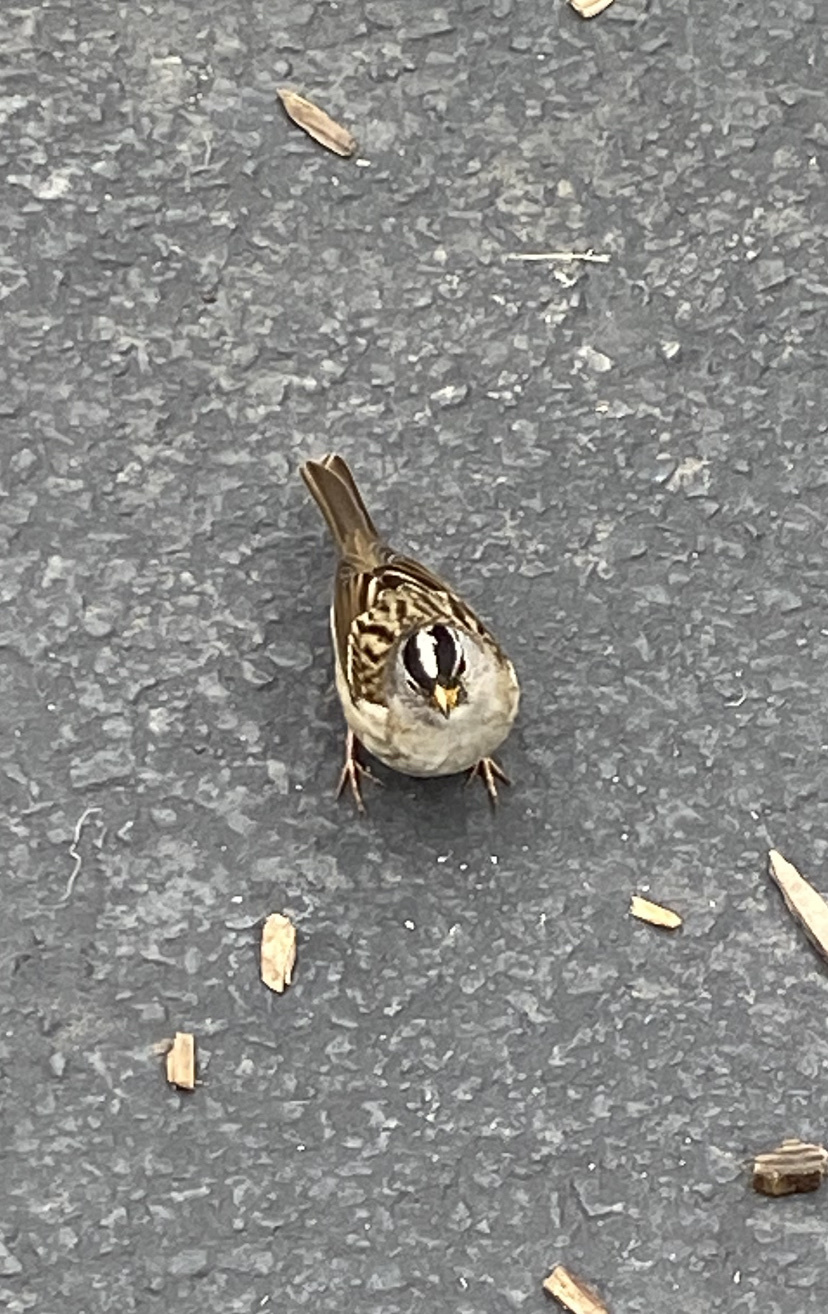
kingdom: Animalia
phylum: Chordata
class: Aves
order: Passeriformes
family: Passerellidae
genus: Zonotrichia
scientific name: Zonotrichia leucophrys
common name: White-crowned sparrow
